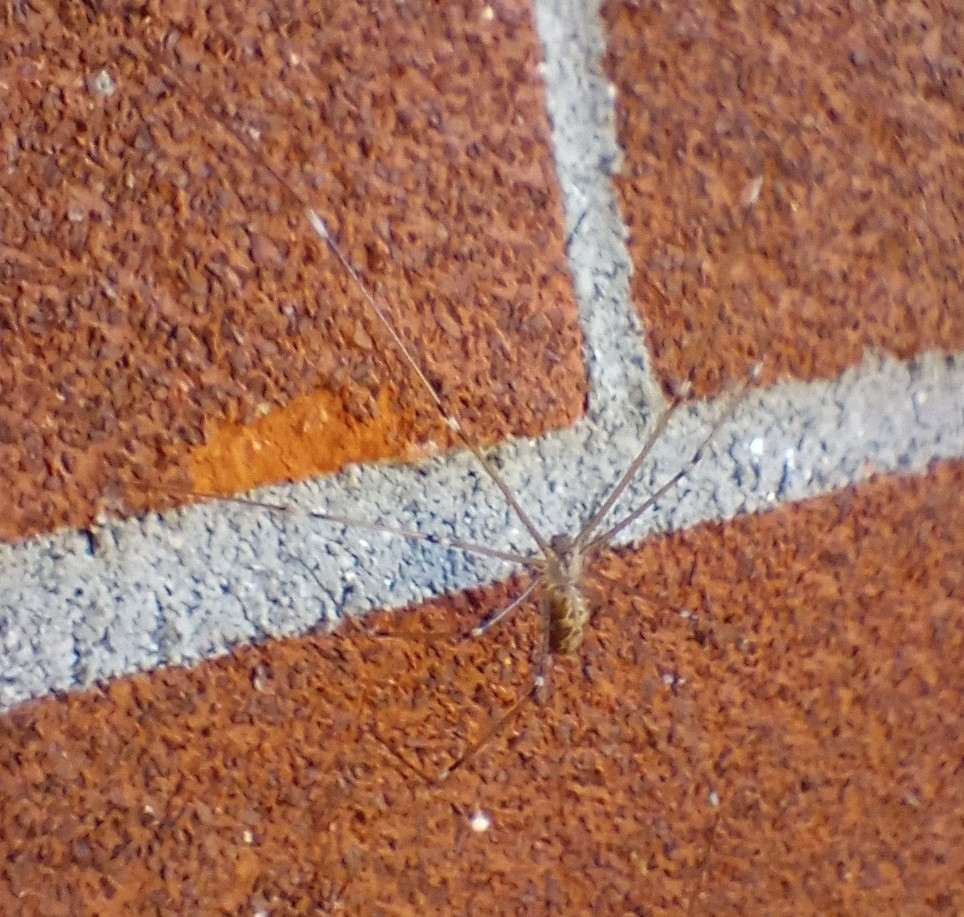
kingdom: Animalia
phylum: Arthropoda
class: Arachnida
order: Araneae
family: Pholcidae
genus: Holocnemus
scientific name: Holocnemus pluchei
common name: Marbled cellar spider
